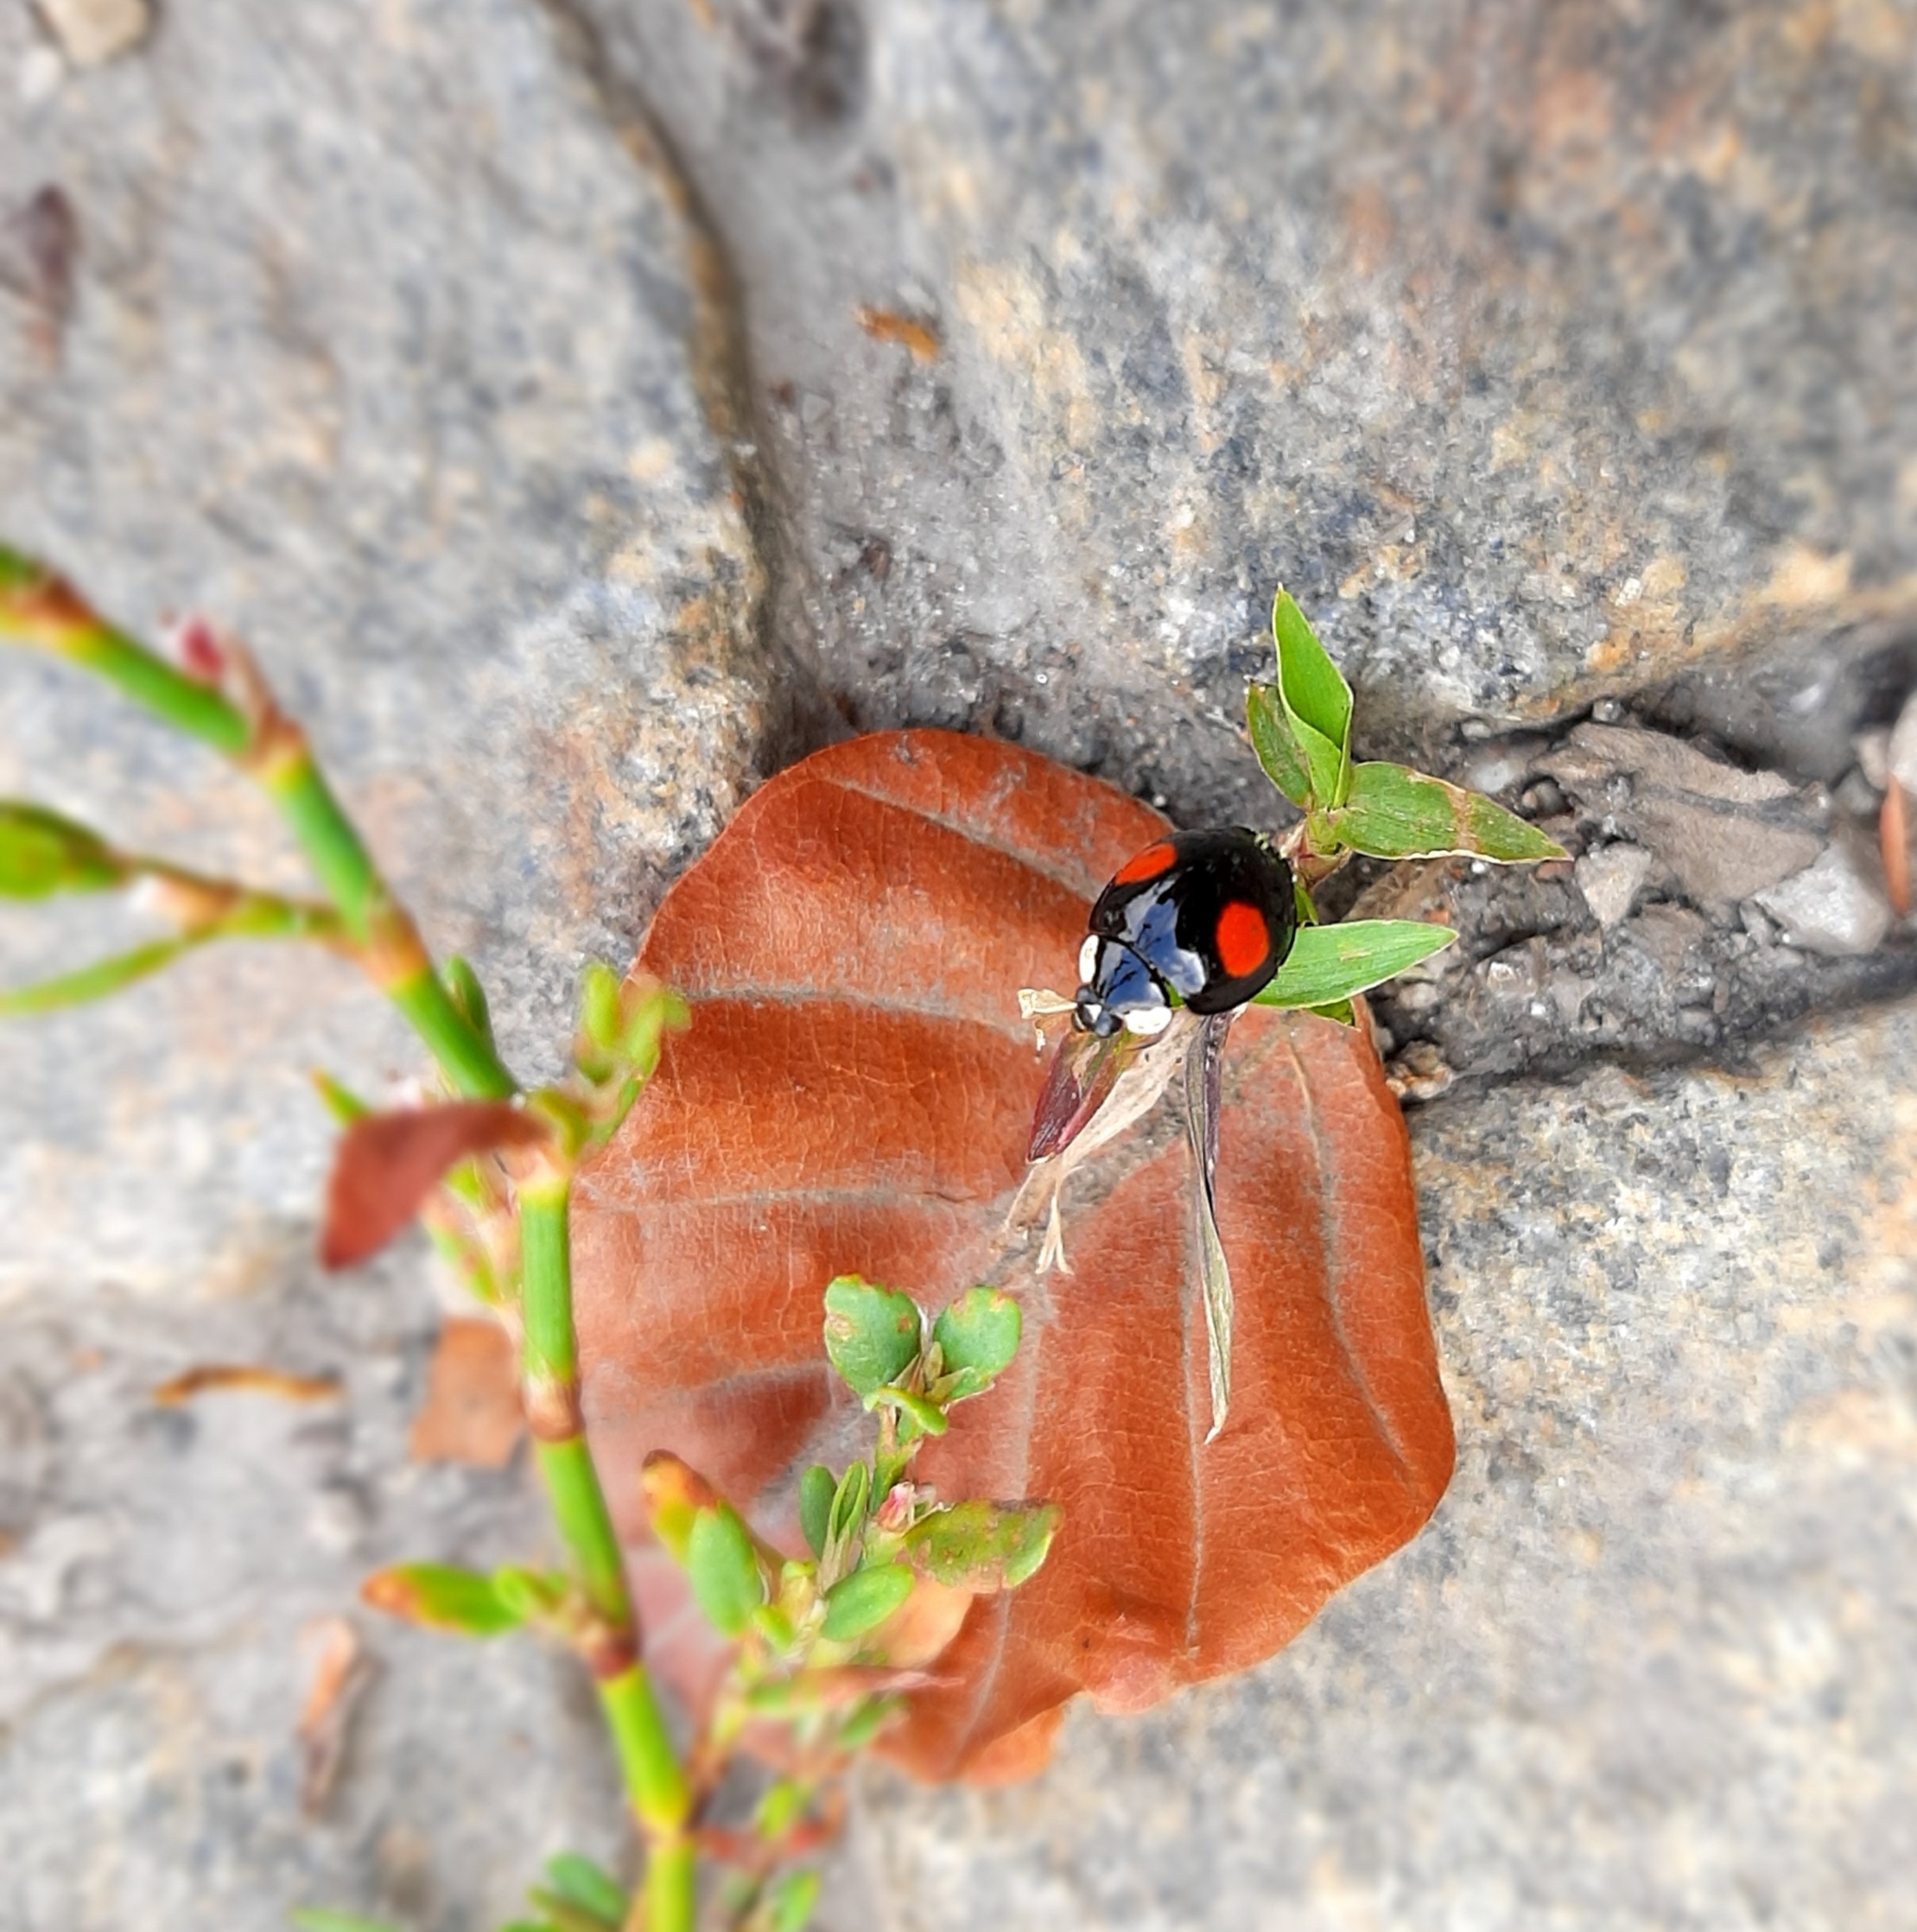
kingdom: Animalia
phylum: Arthropoda
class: Insecta
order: Coleoptera
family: Coccinellidae
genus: Harmonia
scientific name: Harmonia axyridis
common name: Harlequin ladybird
